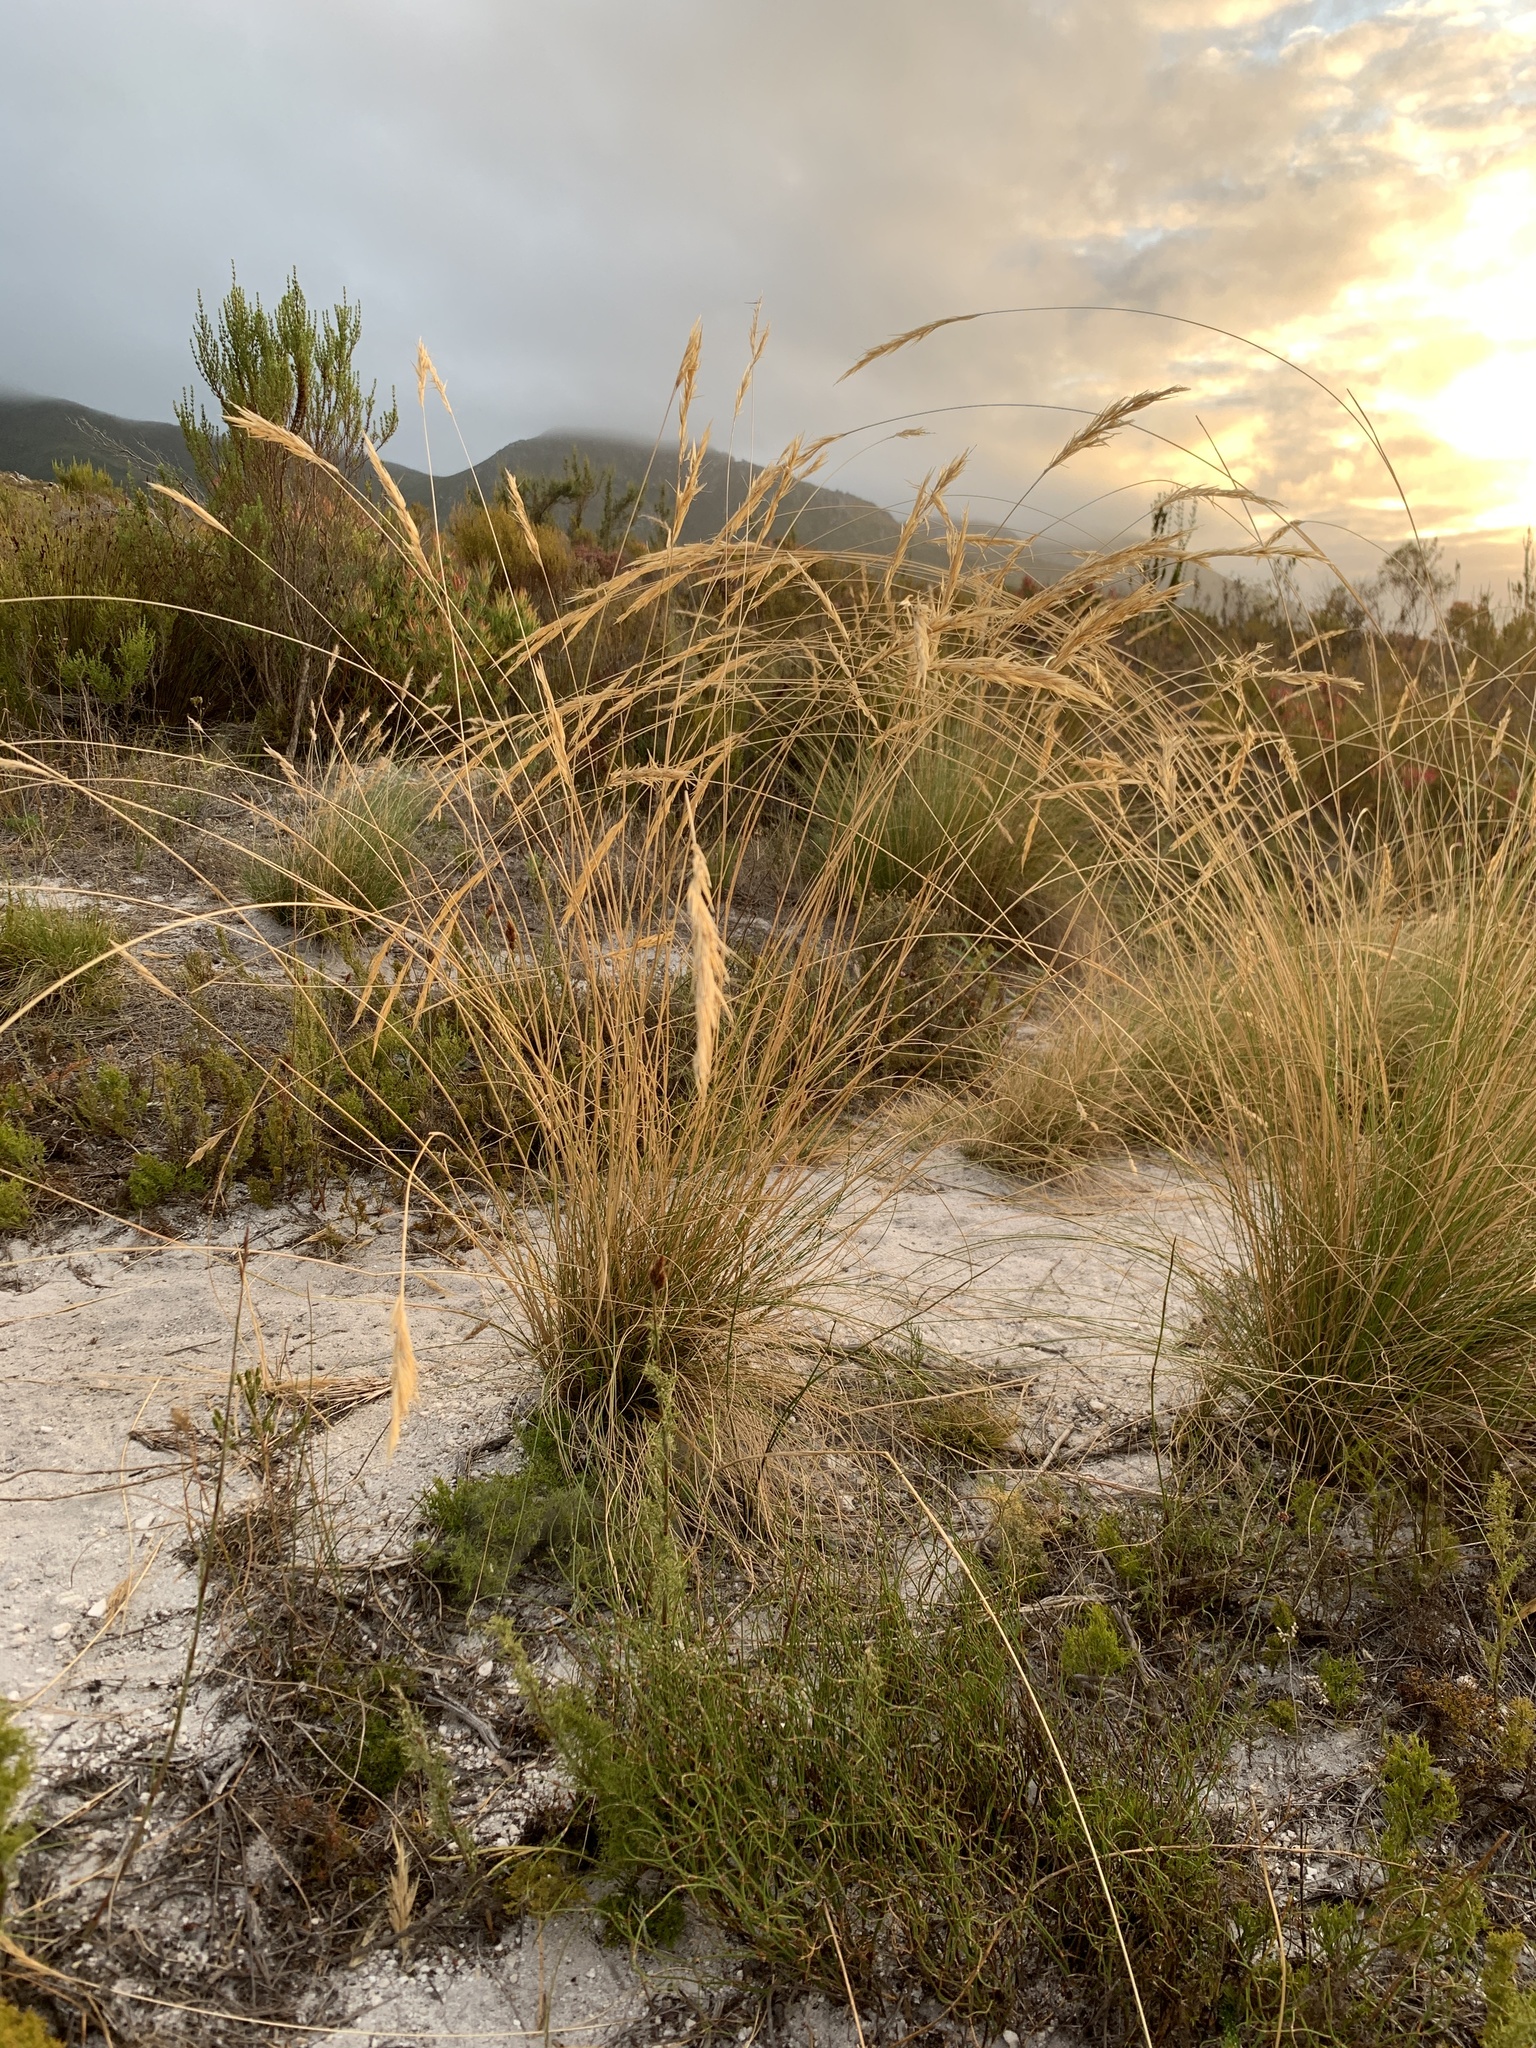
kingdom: Plantae
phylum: Tracheophyta
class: Liliopsida
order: Poales
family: Poaceae
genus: Tenaxia
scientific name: Tenaxia stricta
